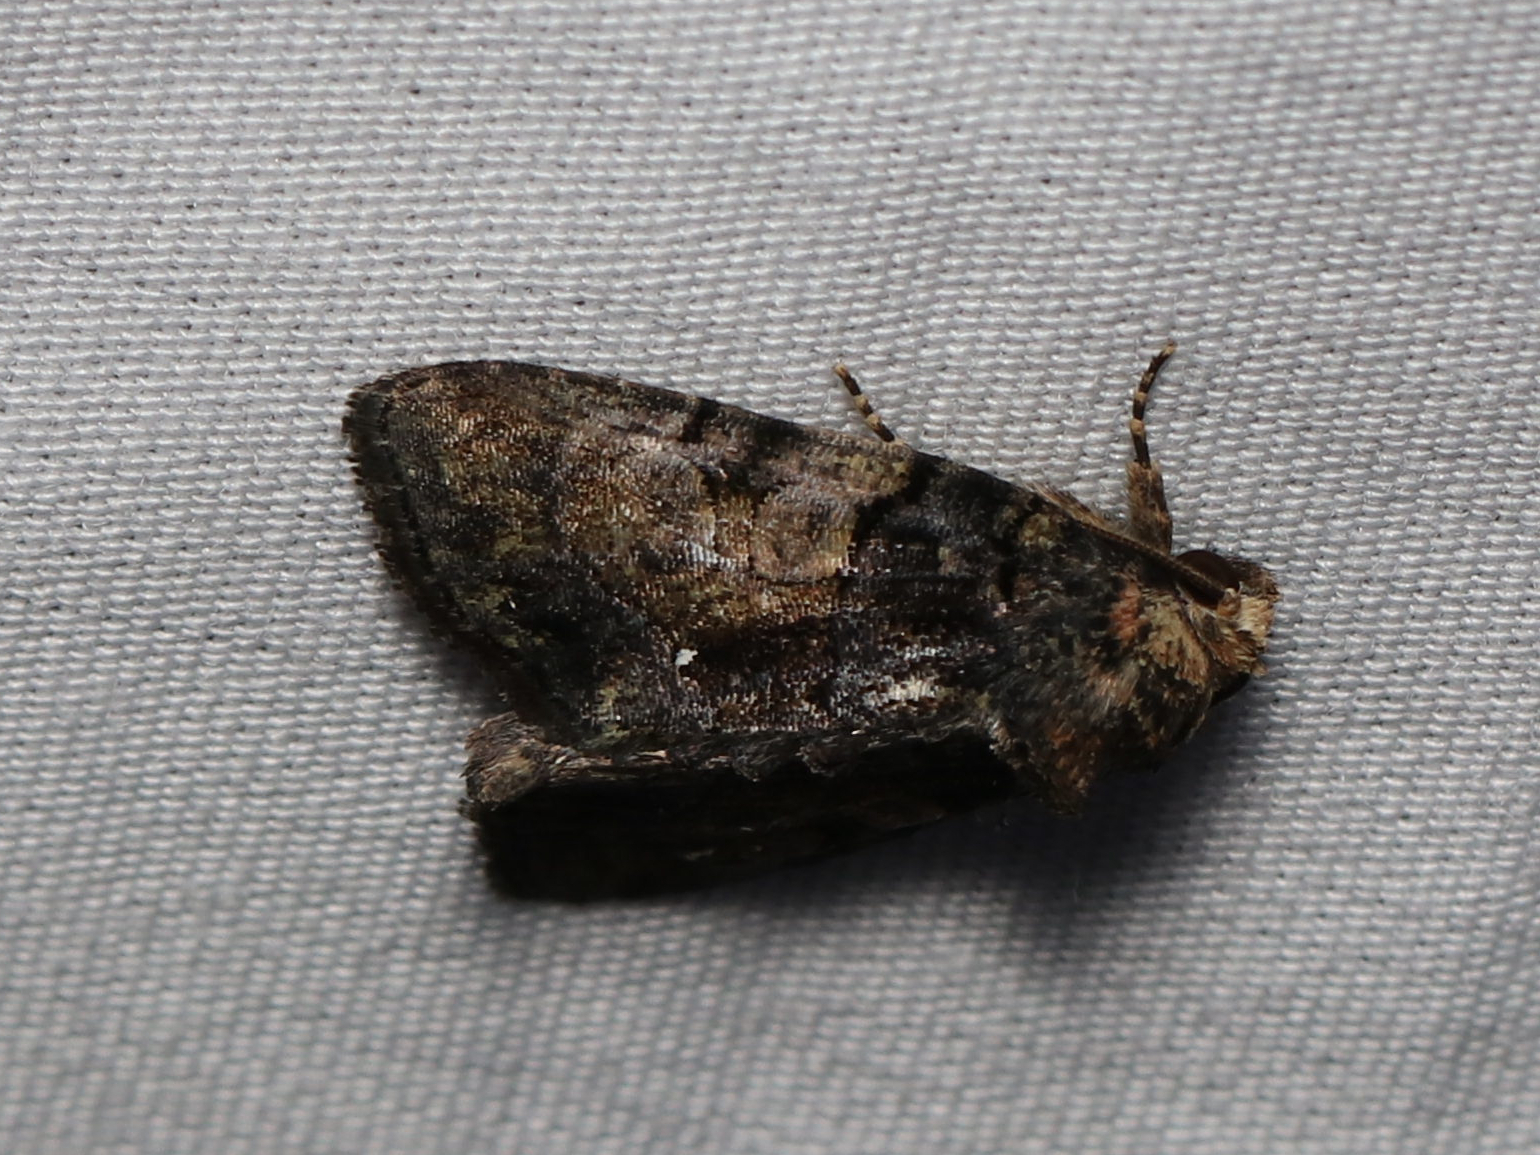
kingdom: Animalia
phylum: Arthropoda
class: Insecta
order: Lepidoptera
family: Noctuidae
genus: Chytonix
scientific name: Chytonix palliatricula
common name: Cloaked marvel
